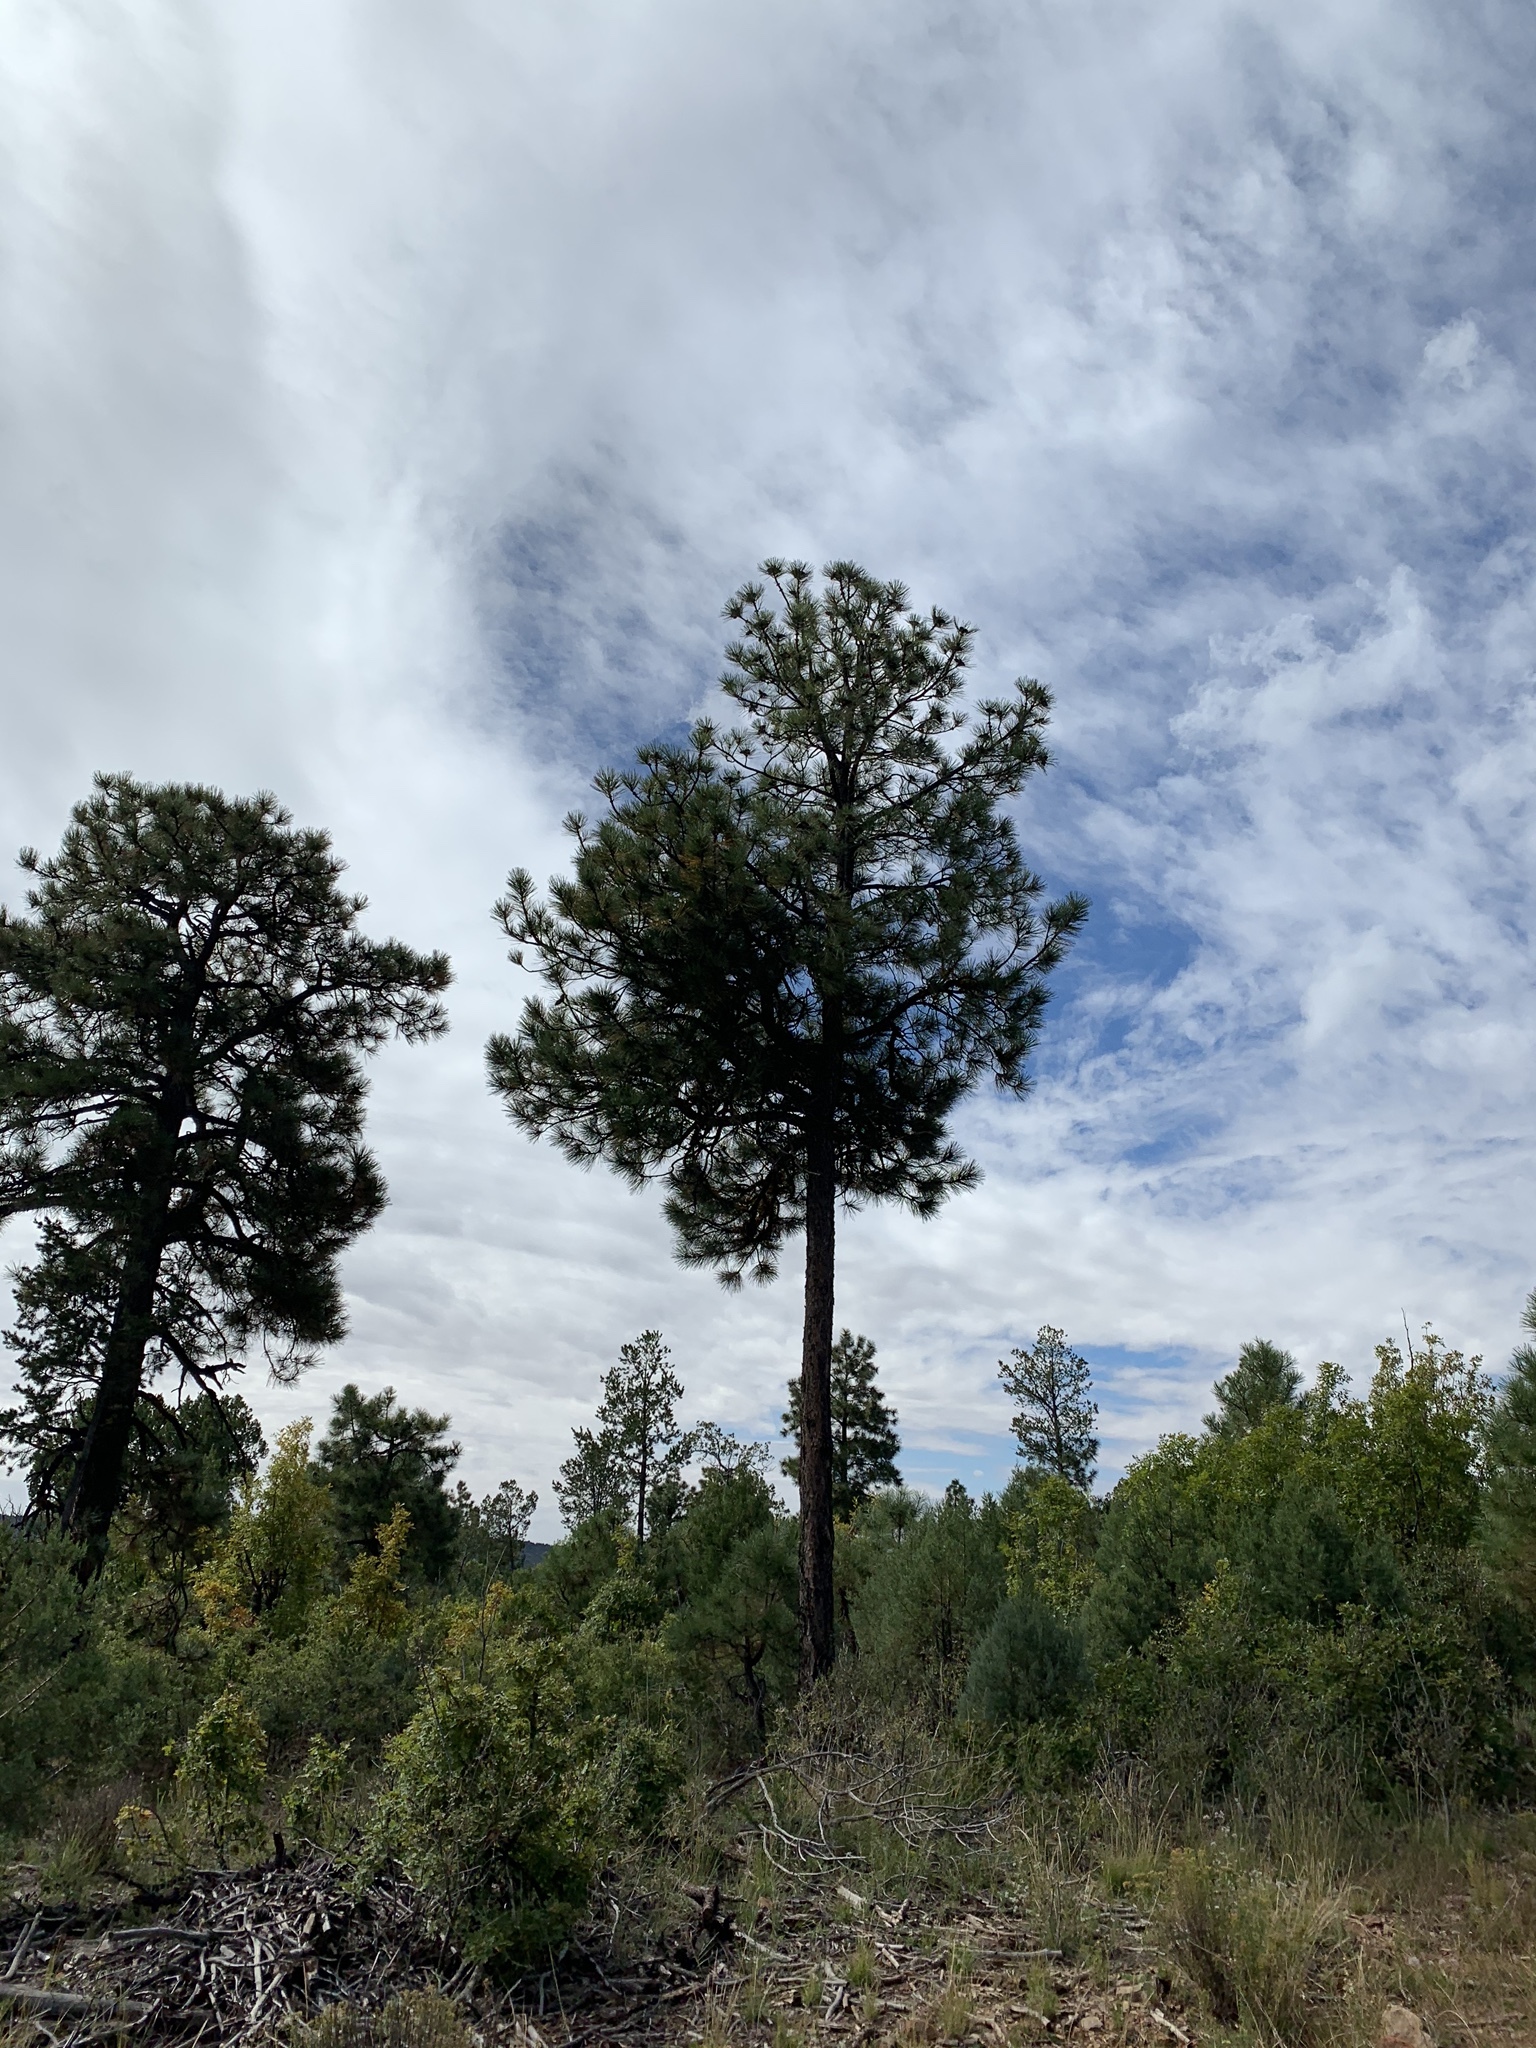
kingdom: Plantae
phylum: Tracheophyta
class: Pinopsida
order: Pinales
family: Pinaceae
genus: Pinus
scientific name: Pinus ponderosa
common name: Western yellow-pine
